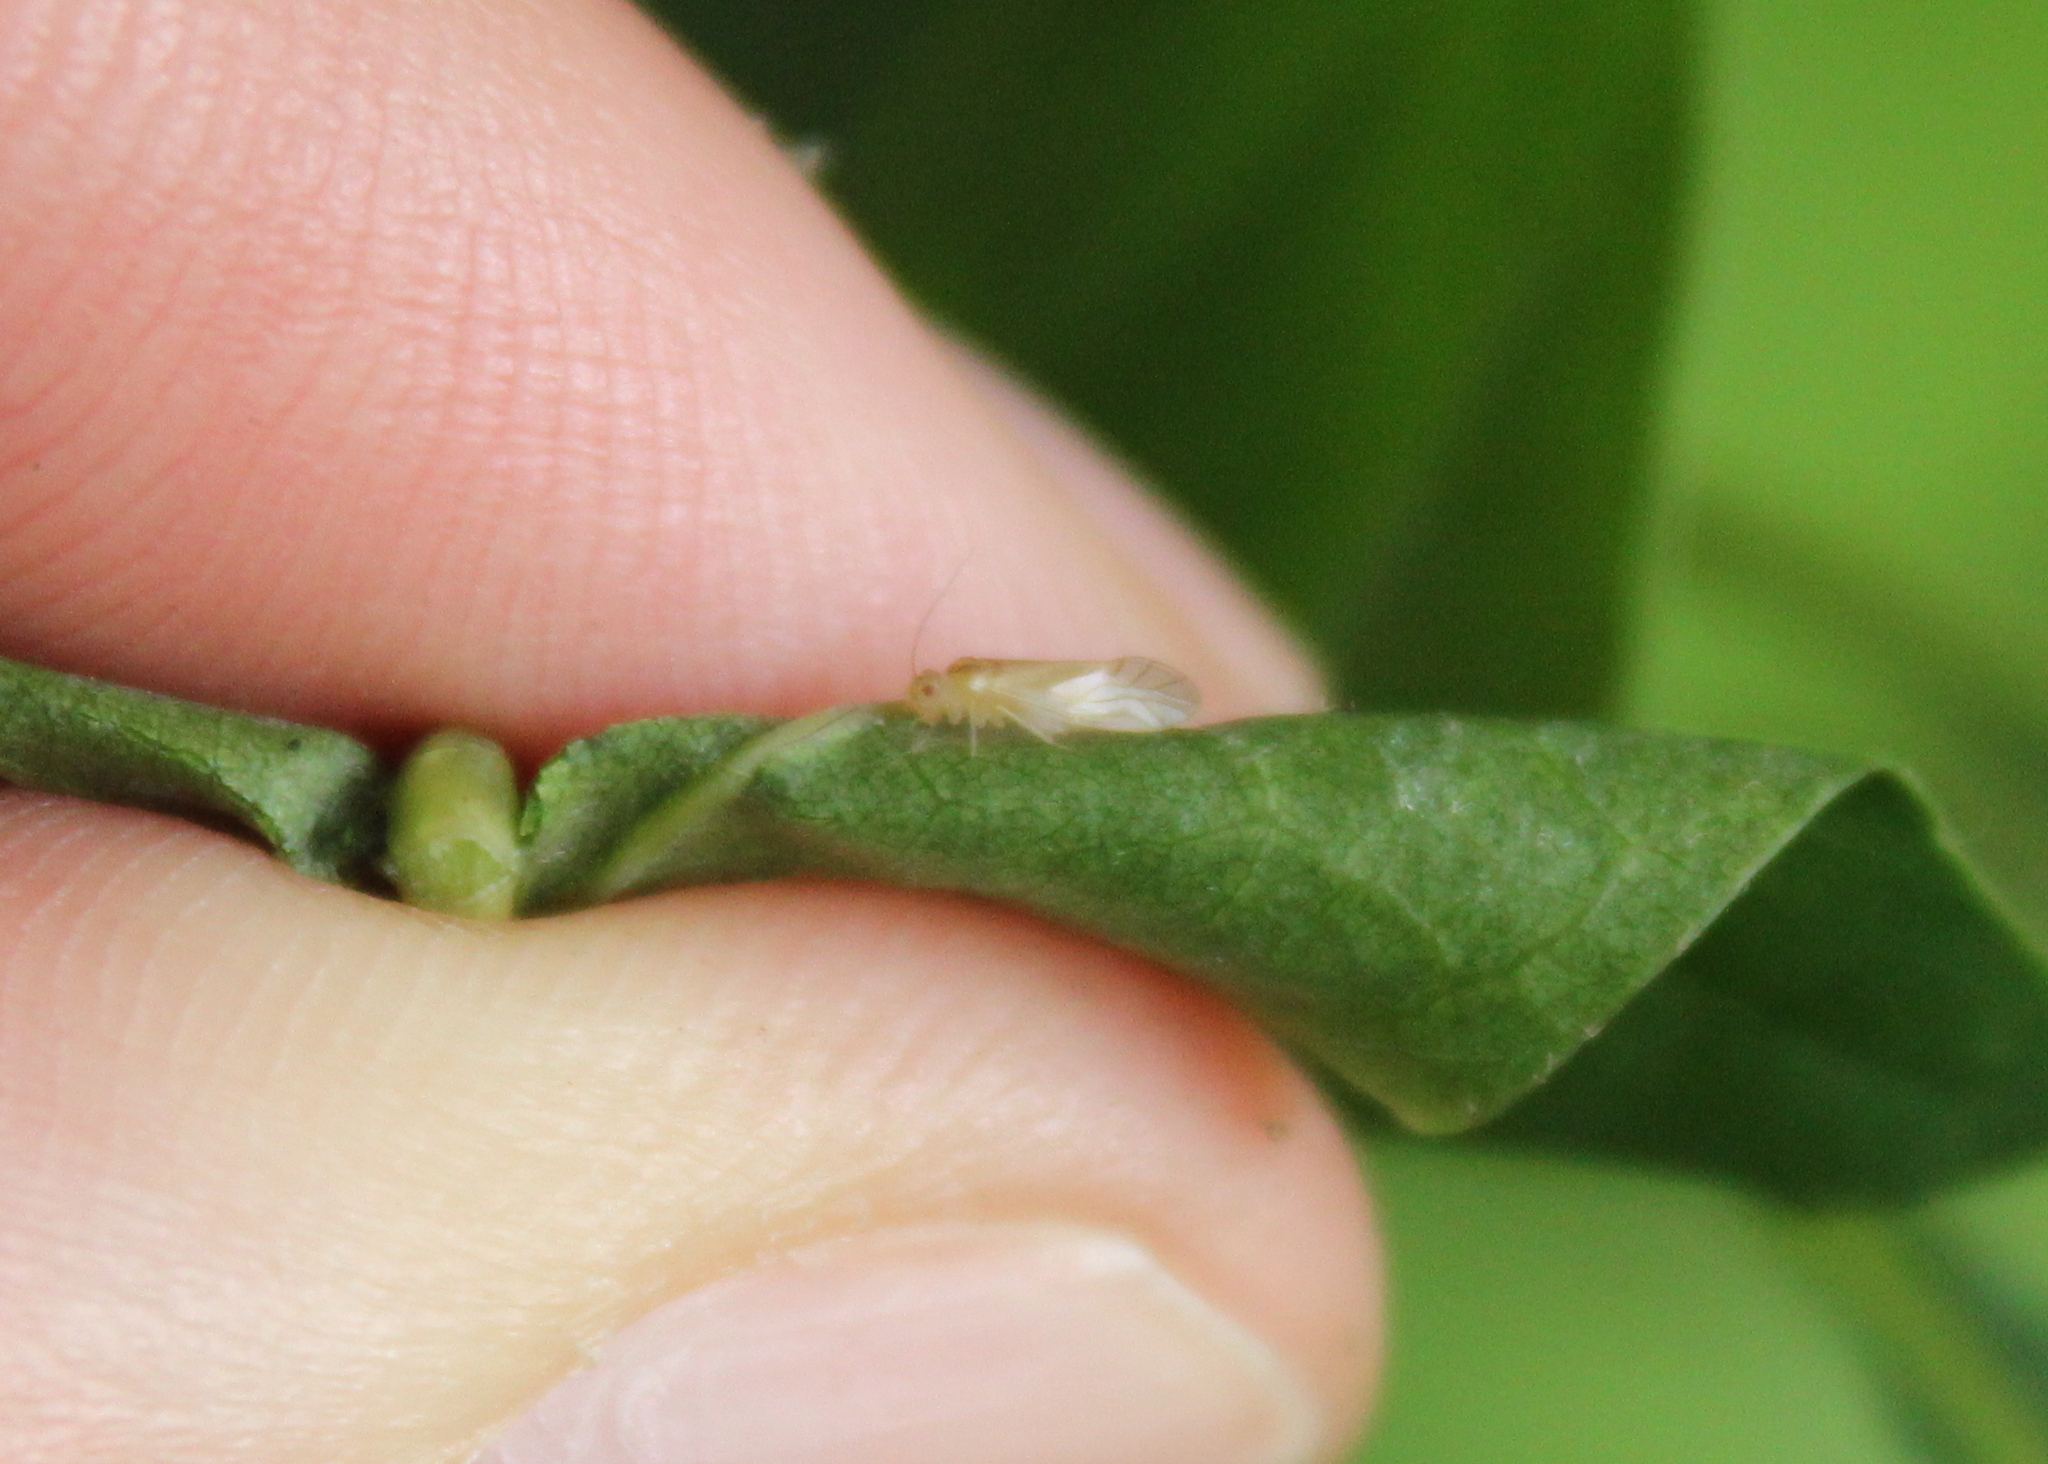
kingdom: Animalia
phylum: Arthropoda
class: Insecta
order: Psocodea
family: Caeciliusidae
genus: Valenzuela
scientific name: Valenzuela flavidus
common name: Yellow barklouse
